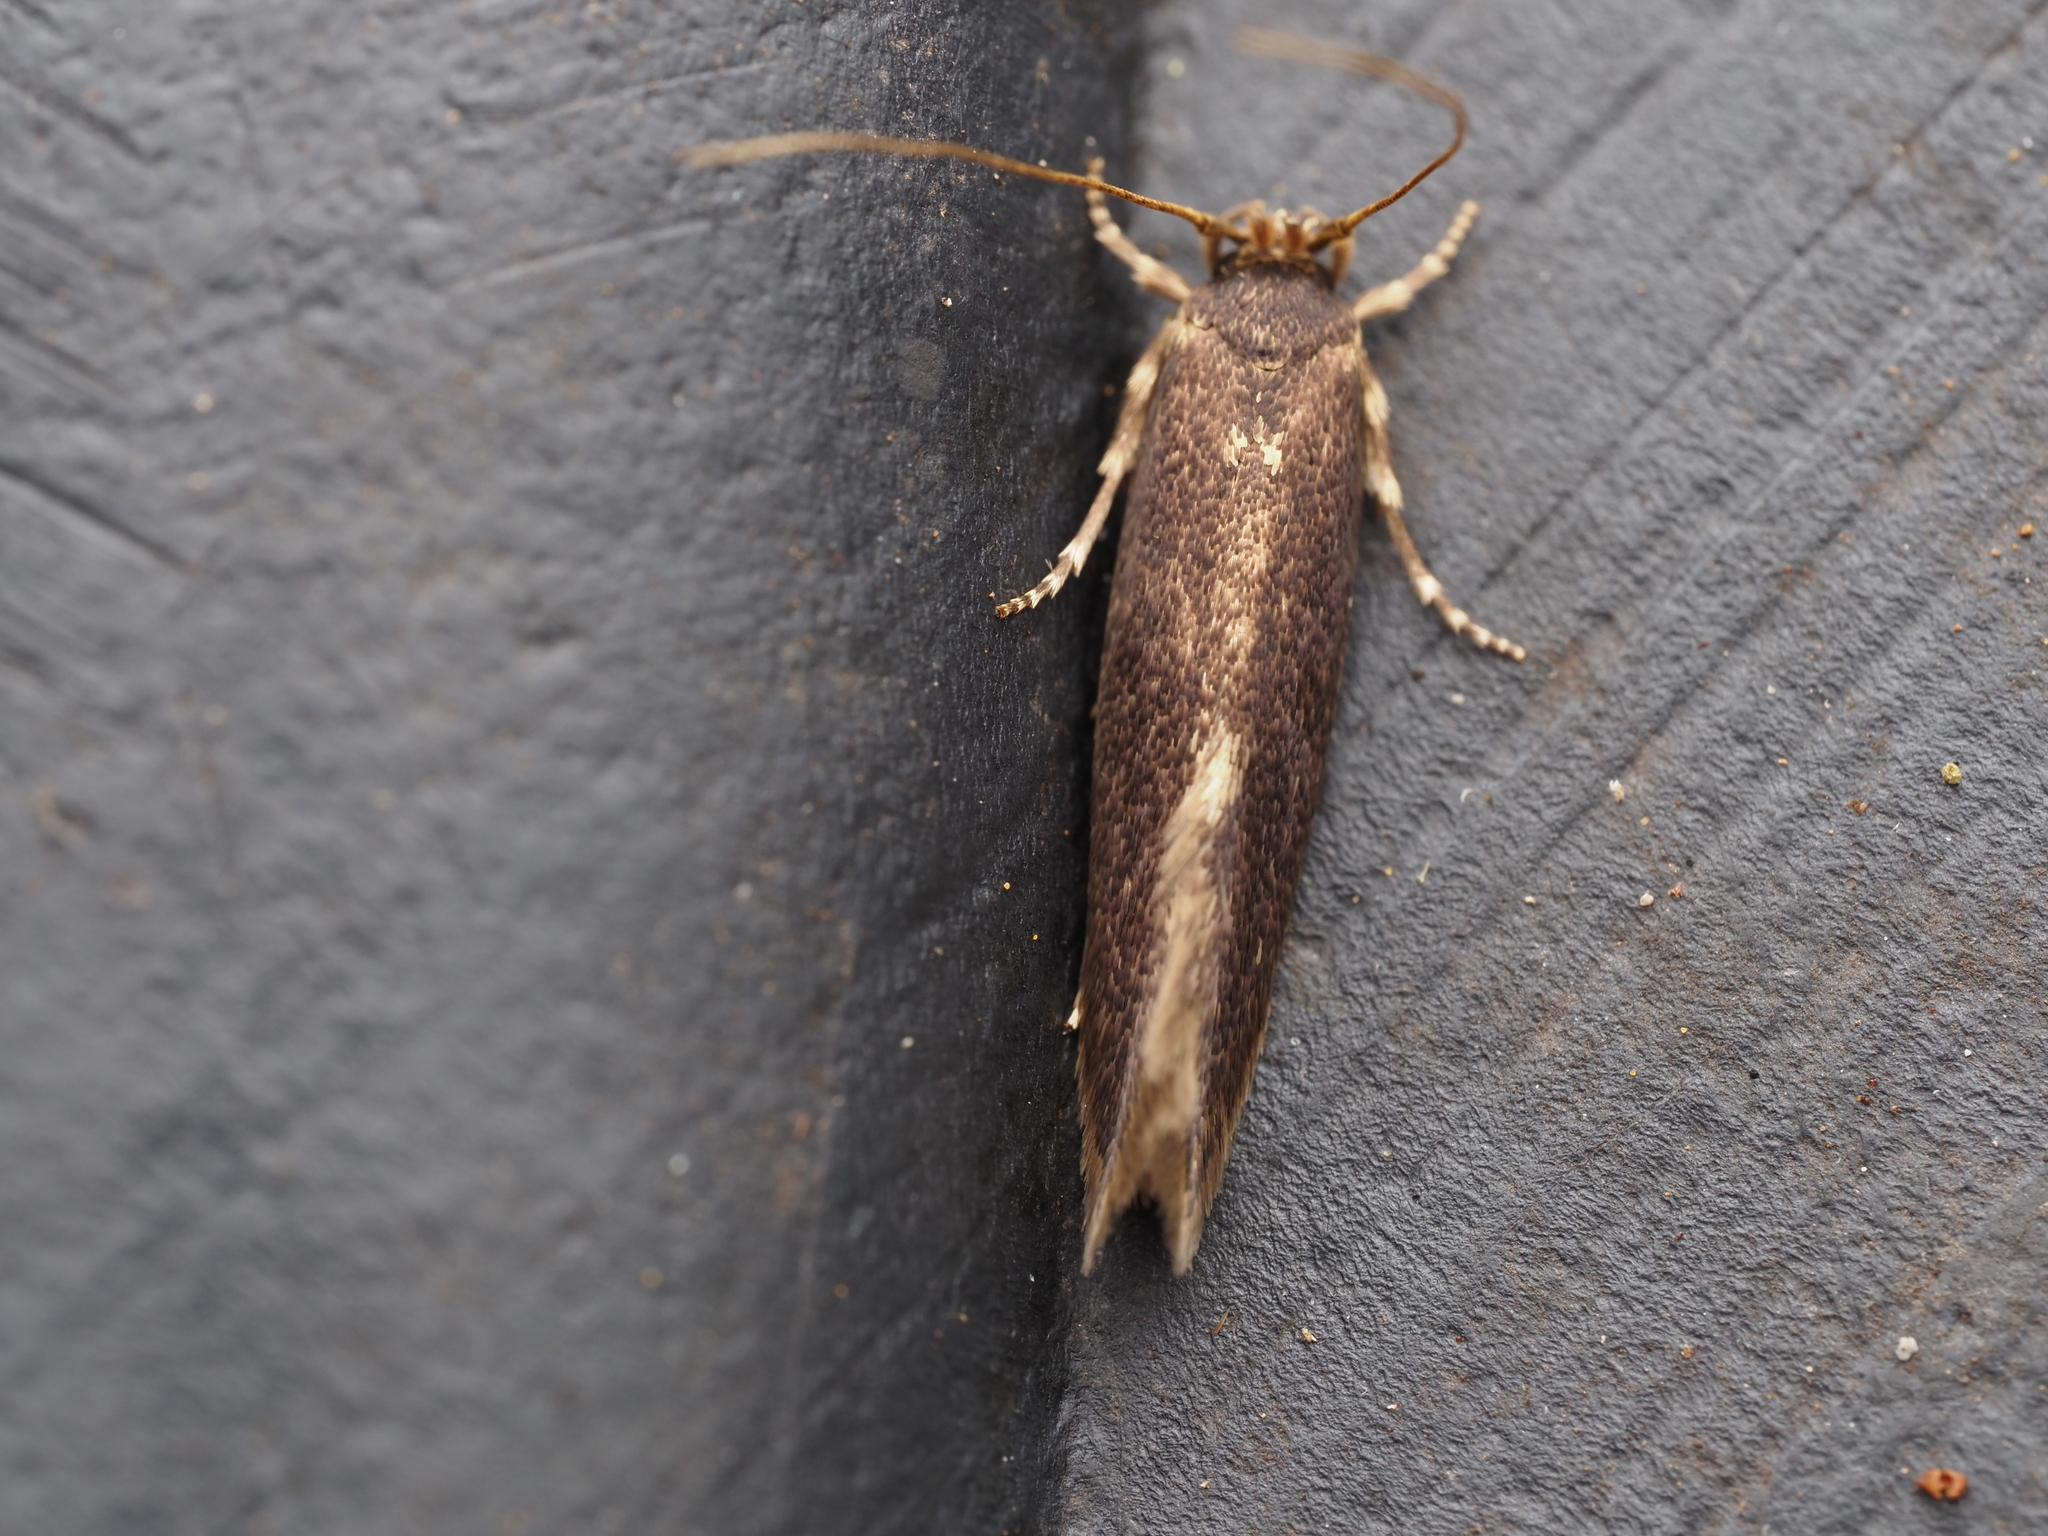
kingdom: Animalia
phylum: Arthropoda
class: Insecta
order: Lepidoptera
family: Tineidae
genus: Opogona
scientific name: Opogona omoscopa
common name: Moth
